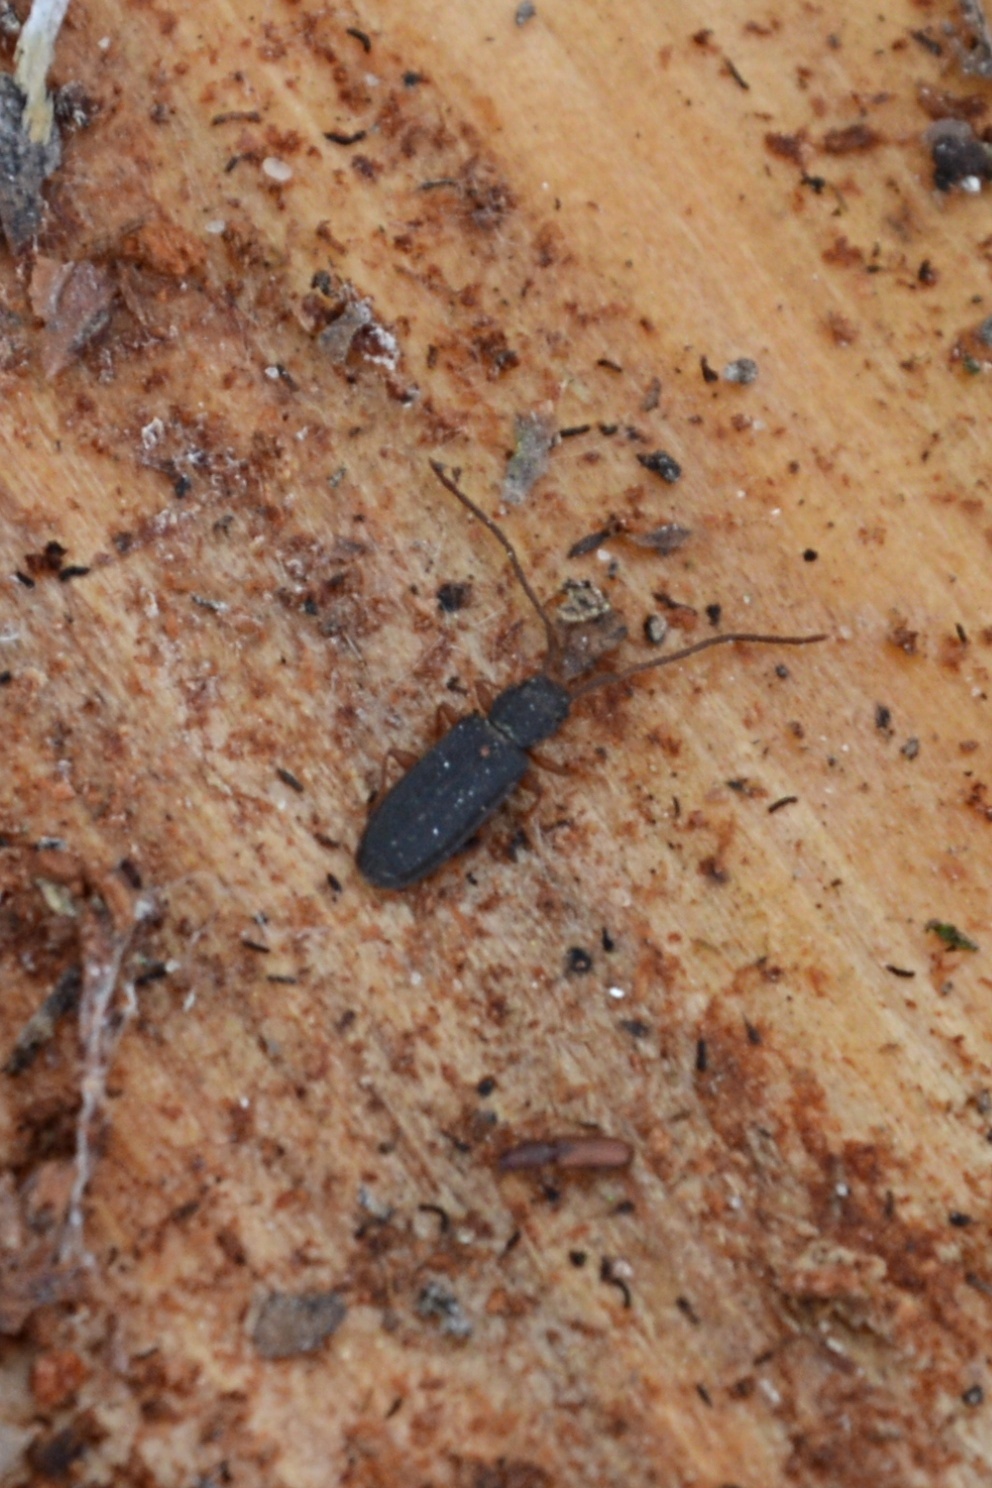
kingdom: Animalia
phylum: Arthropoda
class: Insecta
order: Coleoptera
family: Silvanidae
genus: Uleiota
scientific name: Uleiota planatus
